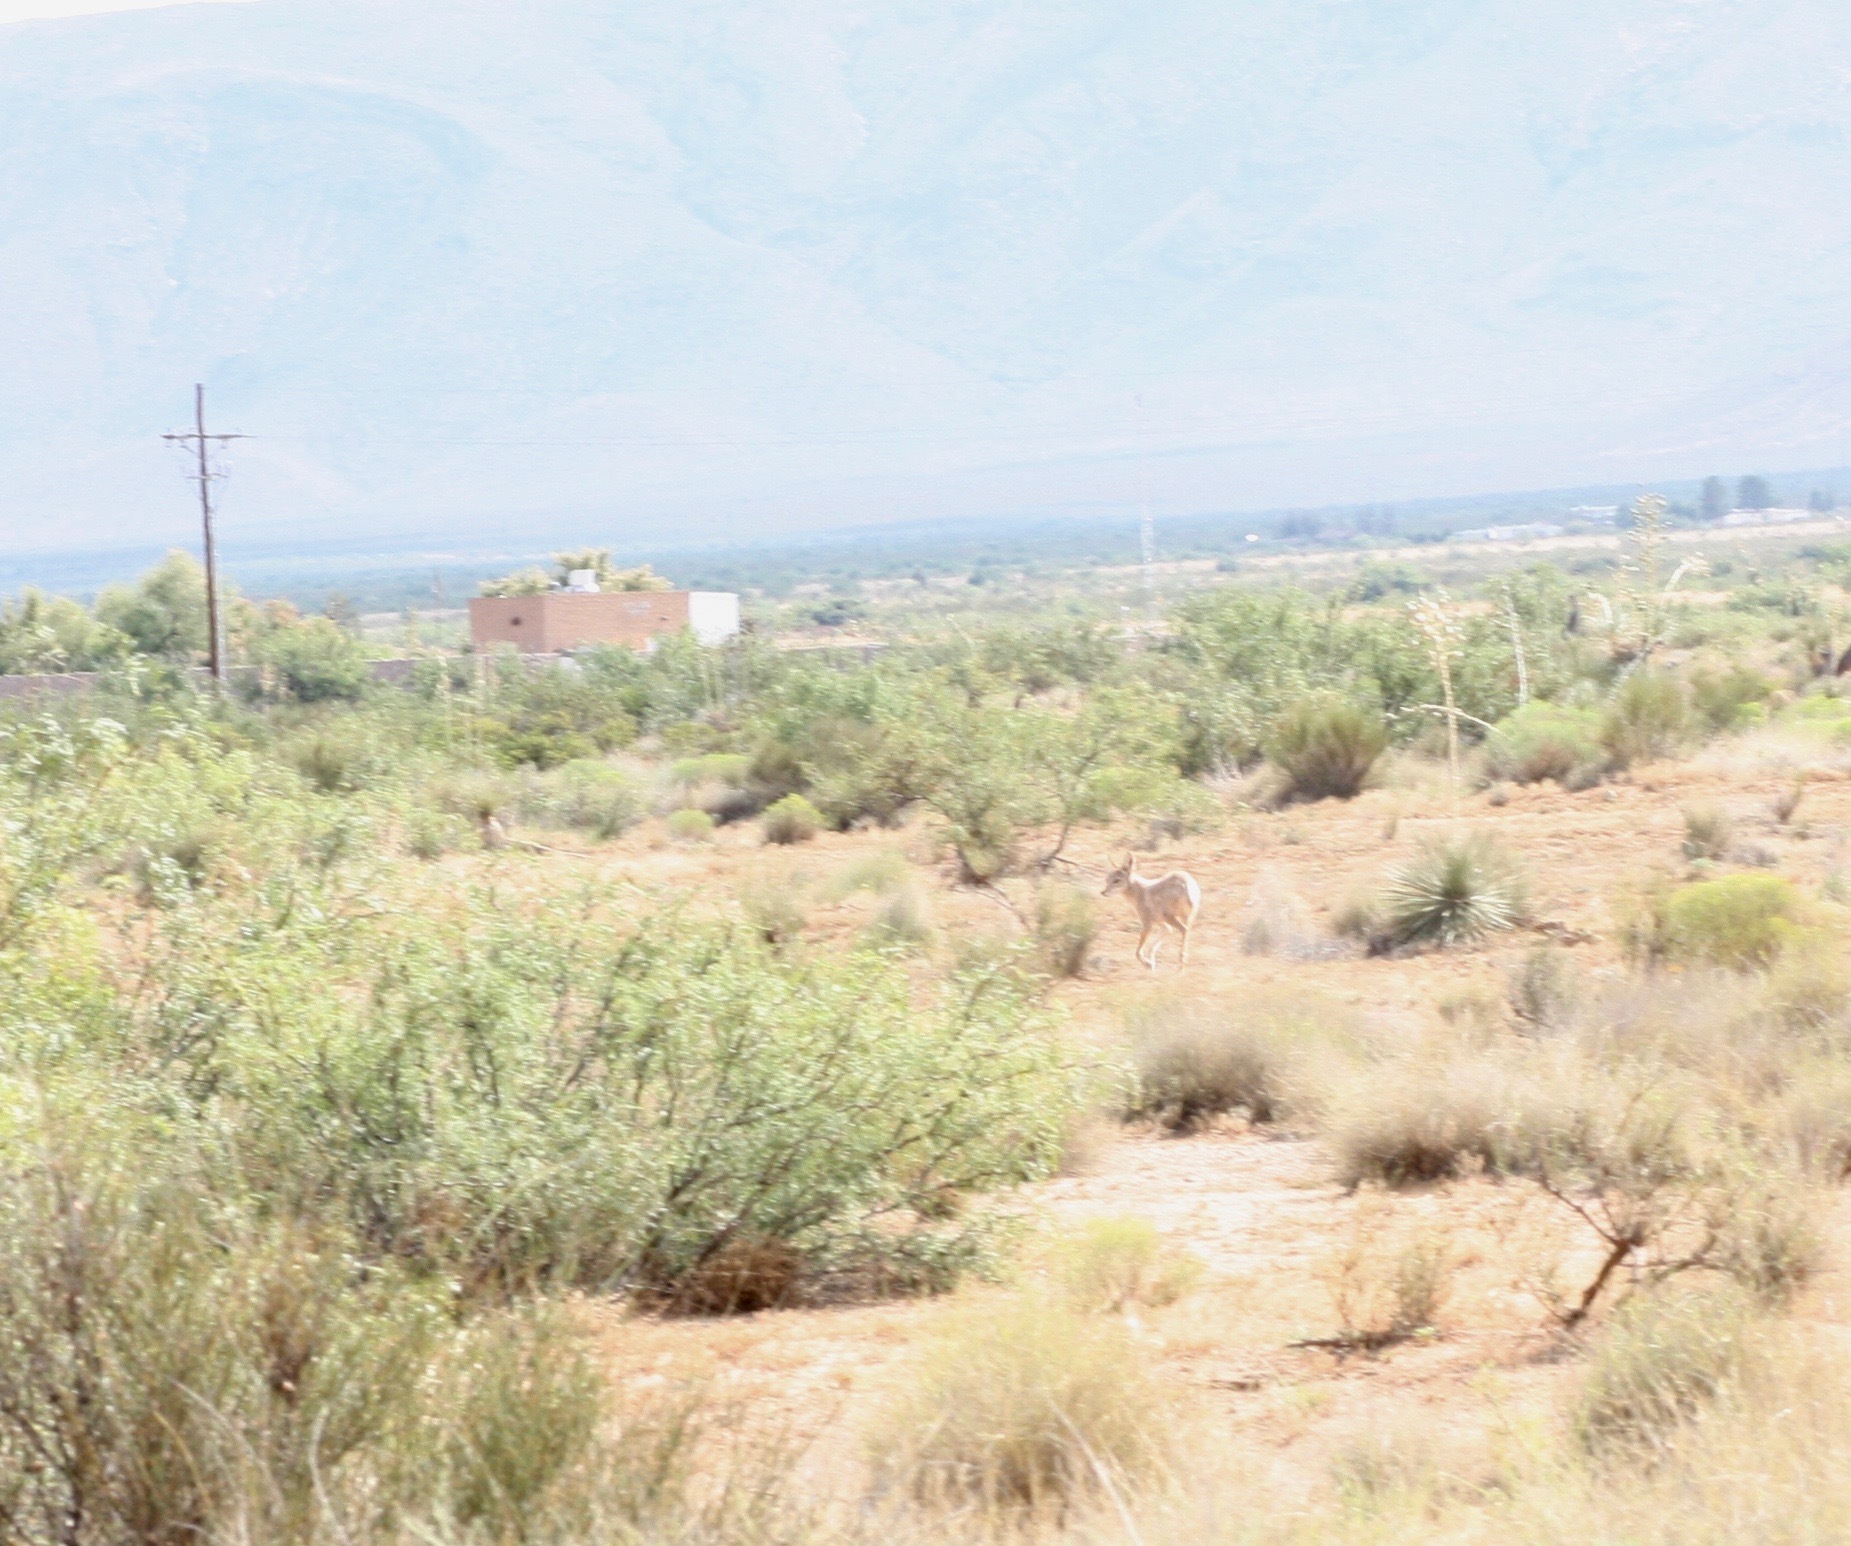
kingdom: Animalia
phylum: Chordata
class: Mammalia
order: Carnivora
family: Canidae
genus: Canis
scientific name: Canis latrans
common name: Coyote
